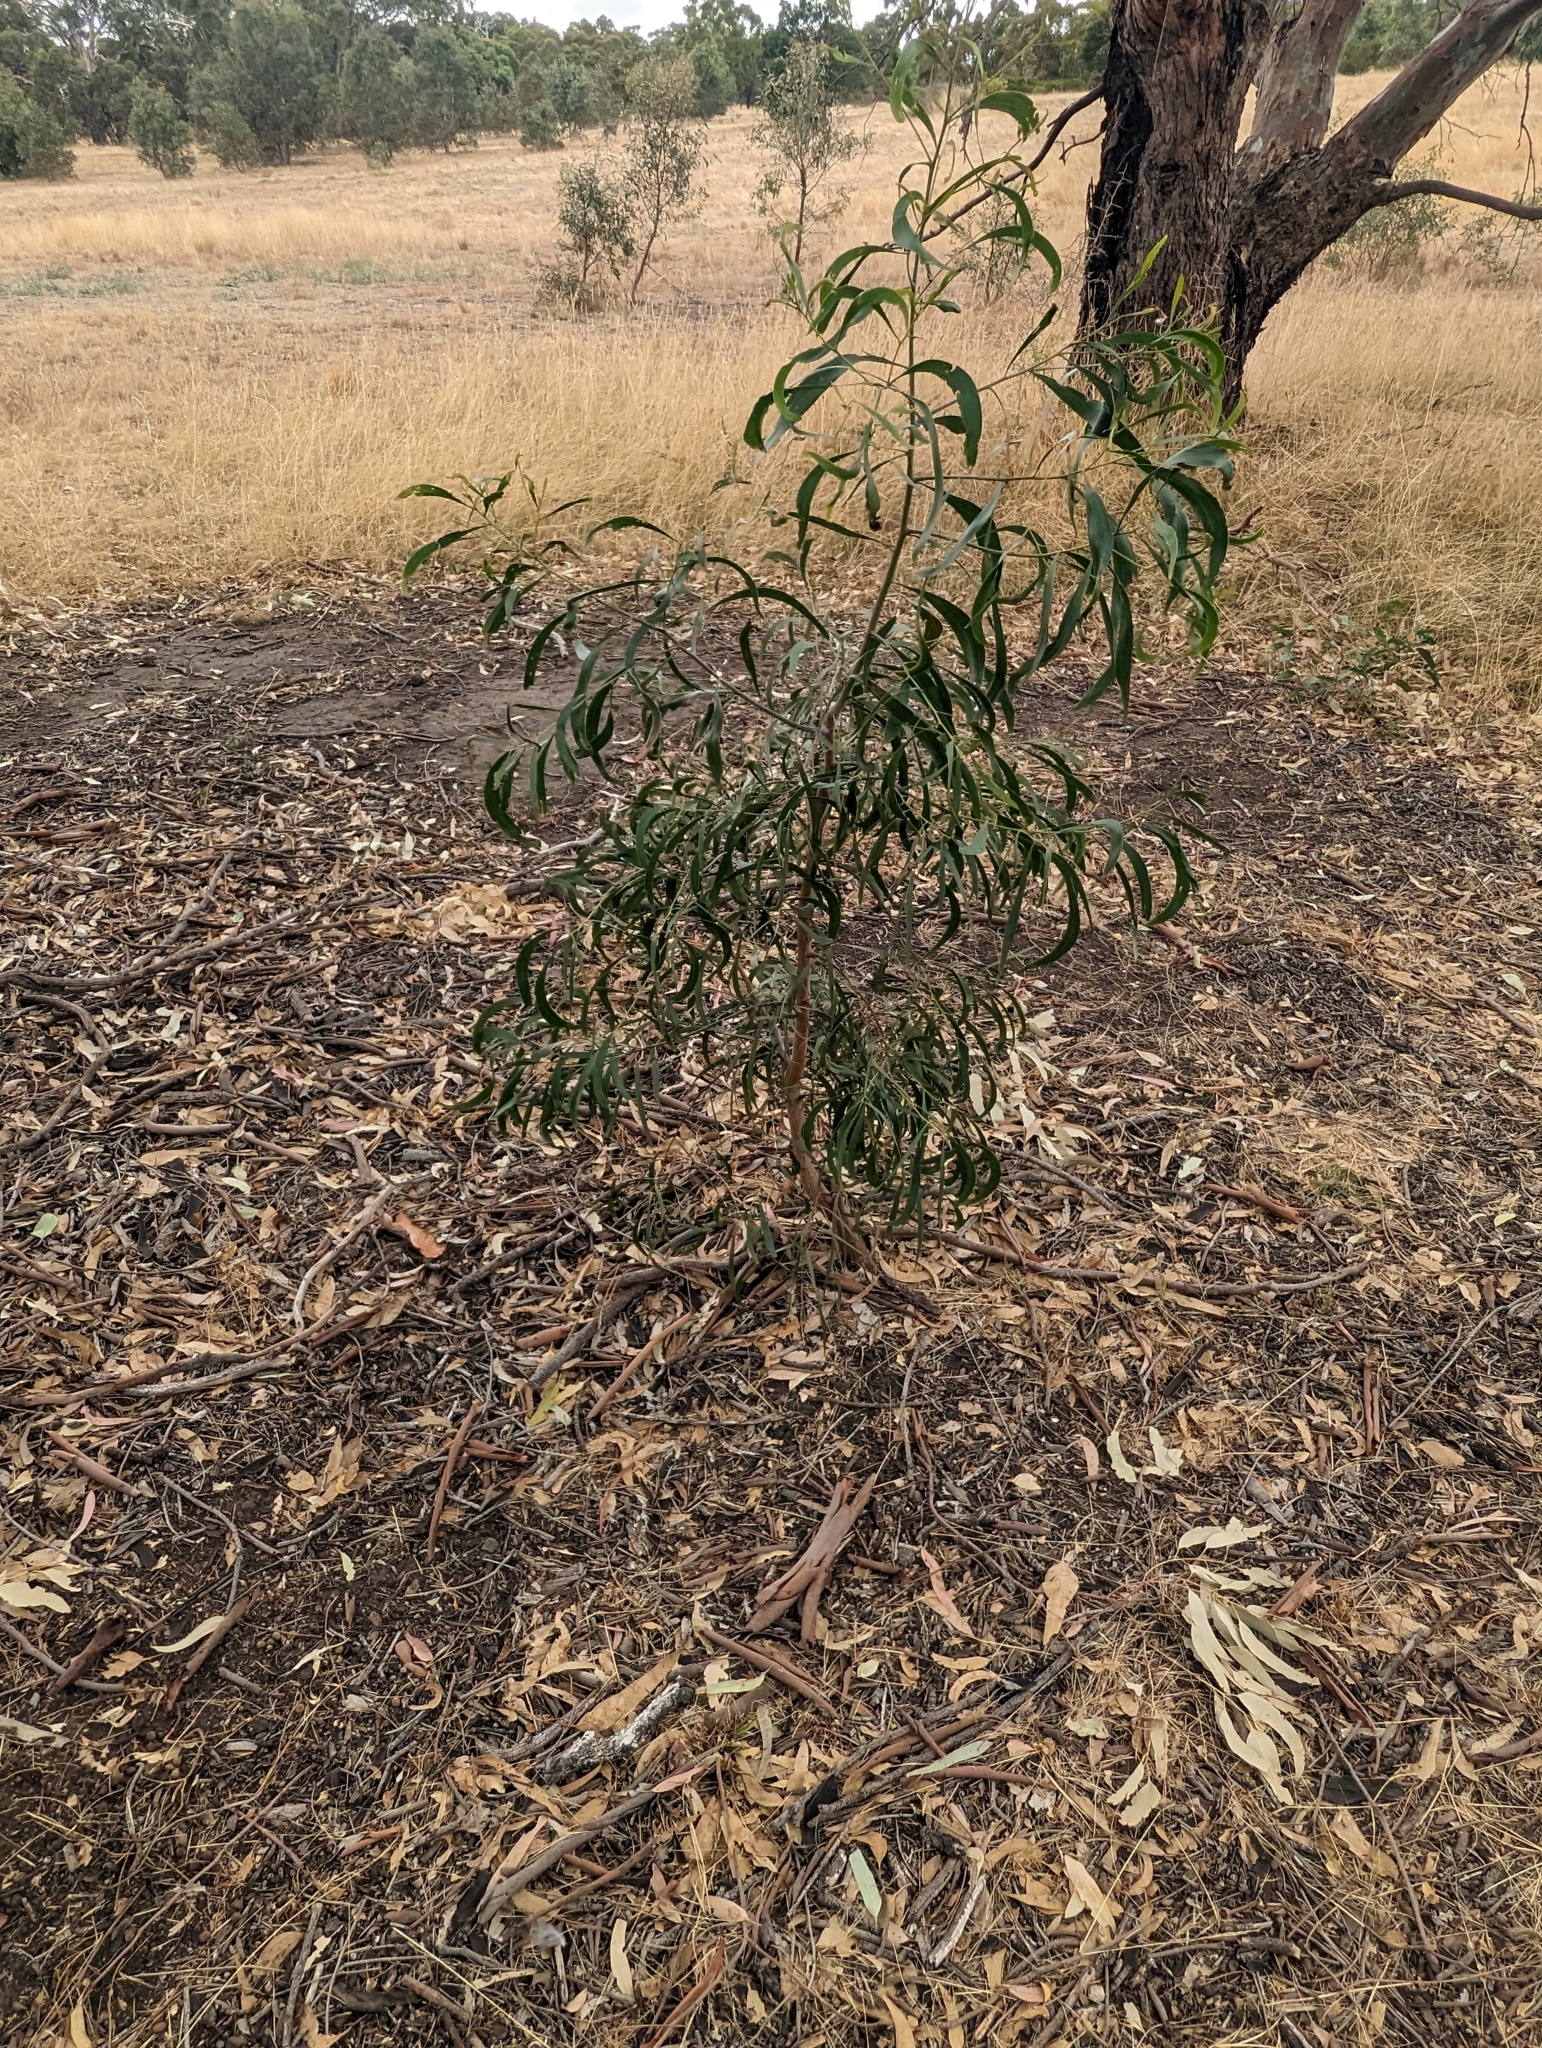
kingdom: Plantae
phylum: Tracheophyta
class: Magnoliopsida
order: Fabales
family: Fabaceae
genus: Acacia
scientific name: Acacia implexa
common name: Black wattle
